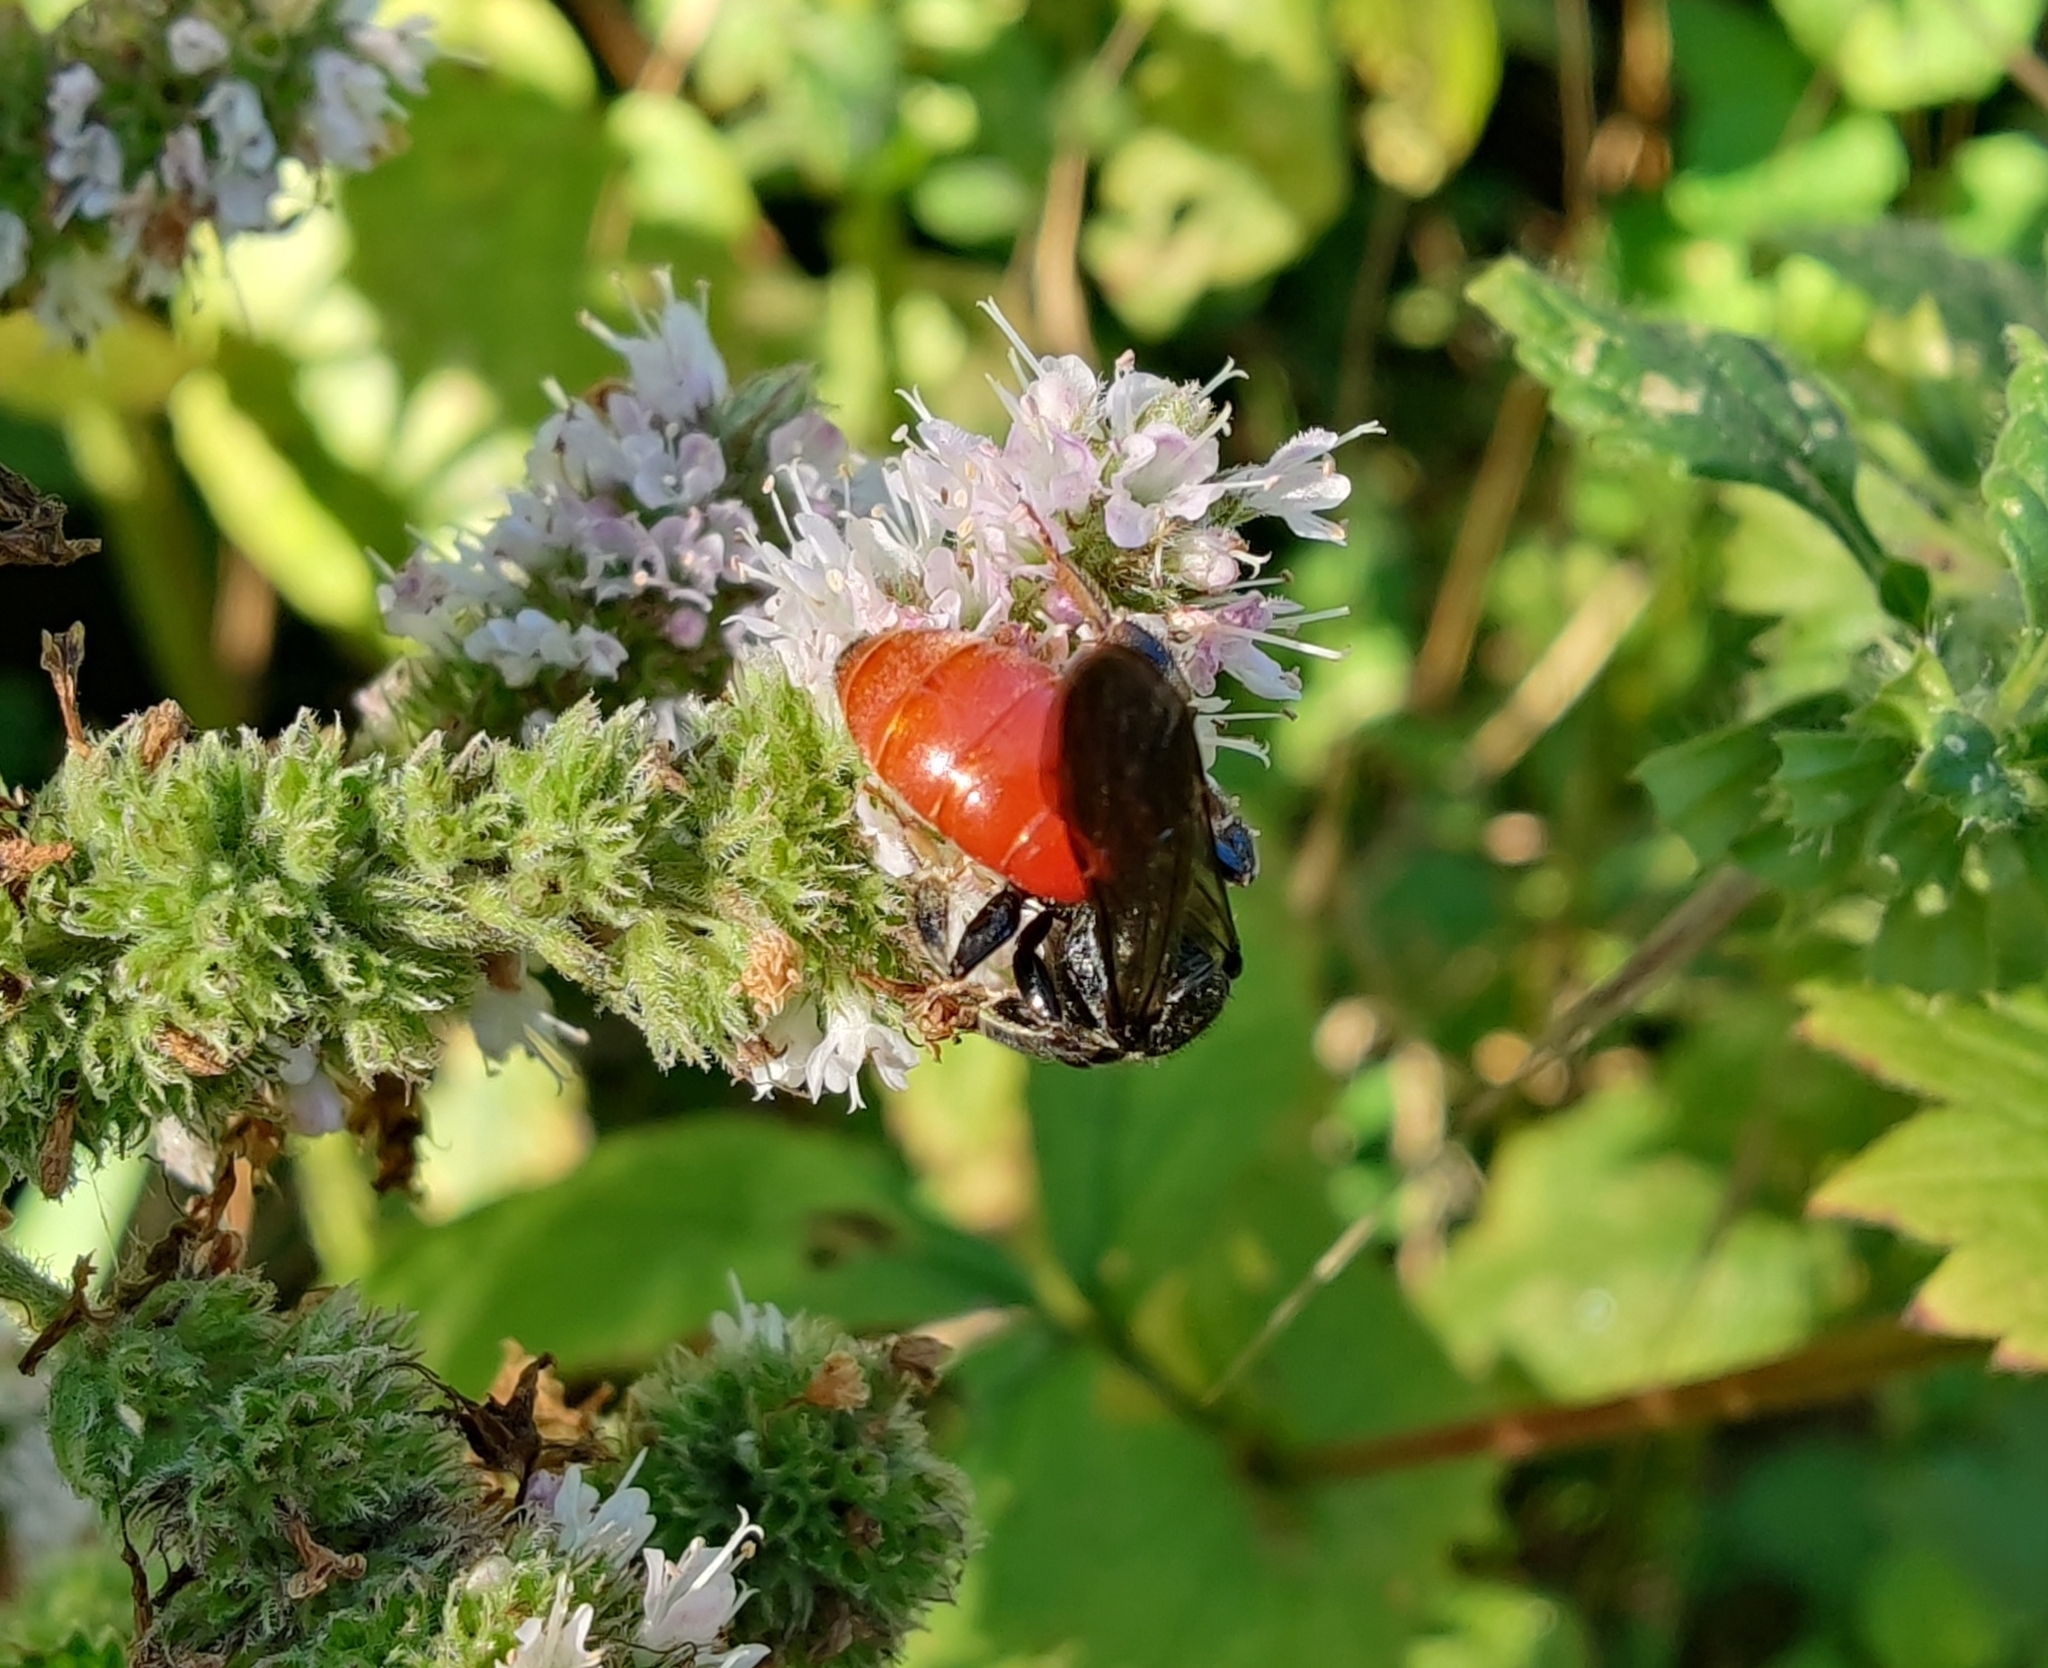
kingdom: Animalia
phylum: Arthropoda
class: Insecta
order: Hymenoptera
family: Halictidae
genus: Sphecodes
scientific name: Sphecodes albilabris
